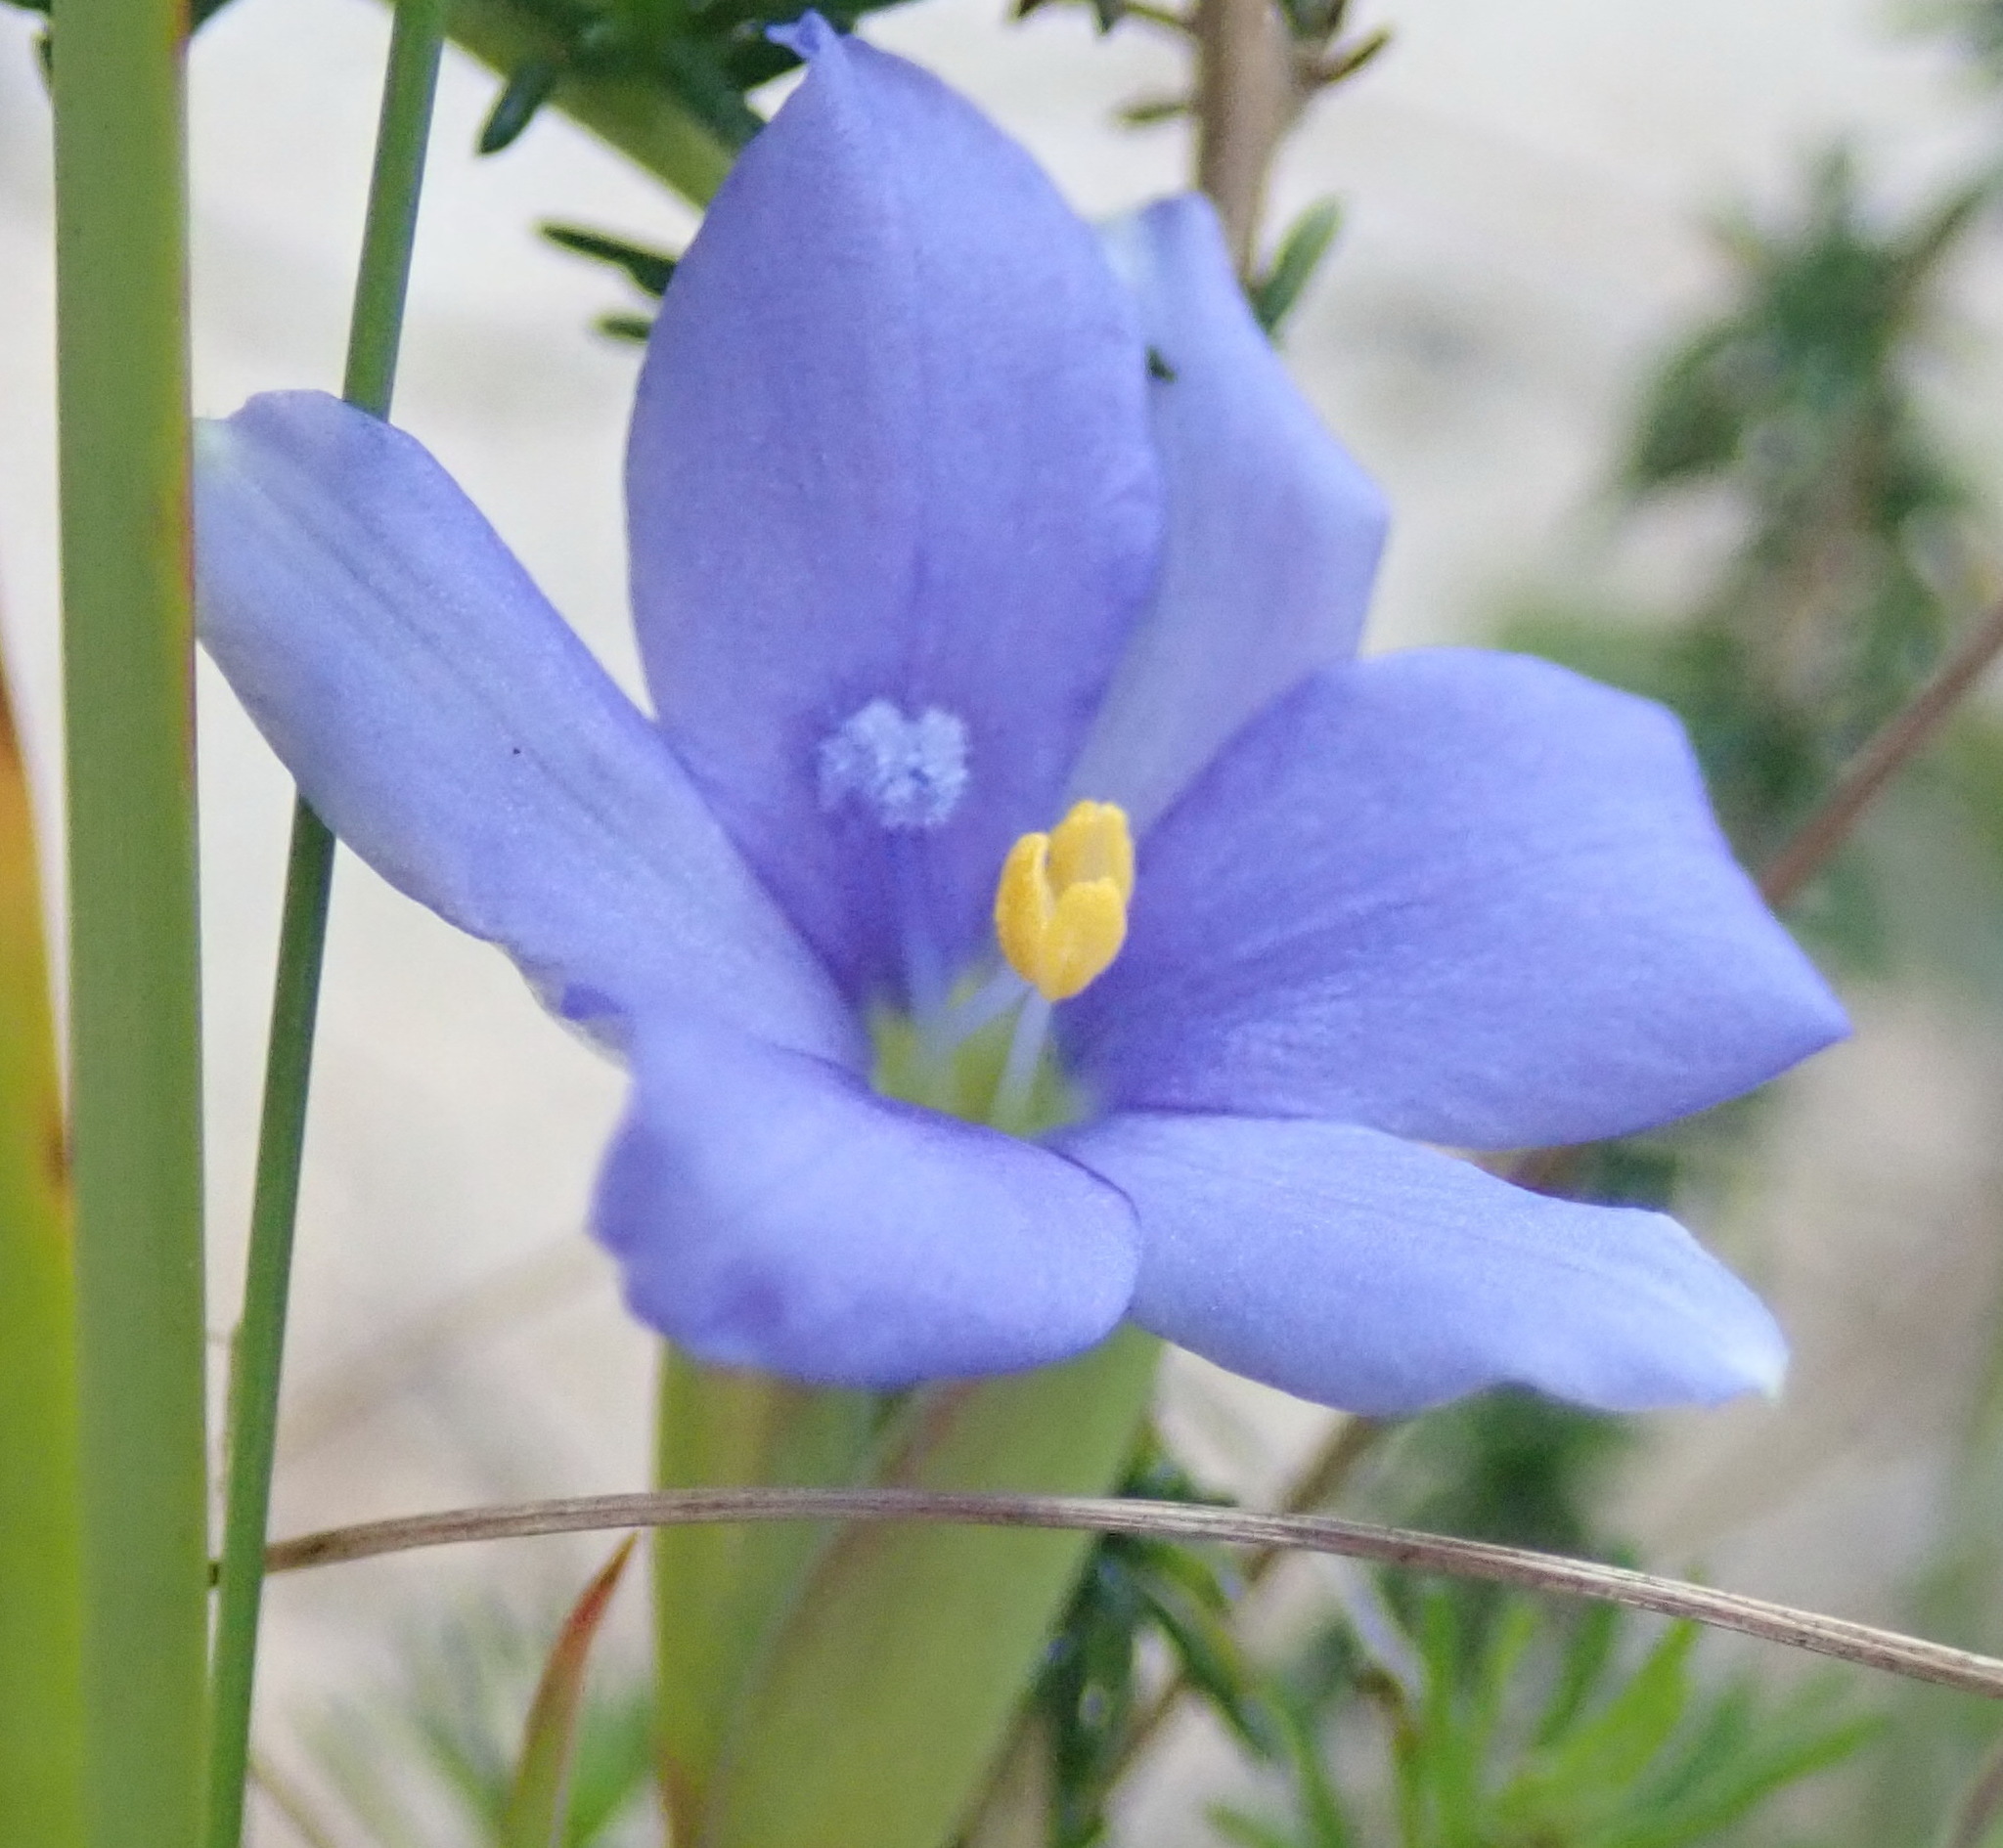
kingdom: Plantae
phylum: Tracheophyta
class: Liliopsida
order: Asparagales
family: Iridaceae
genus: Aristea
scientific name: Aristea pusilla
